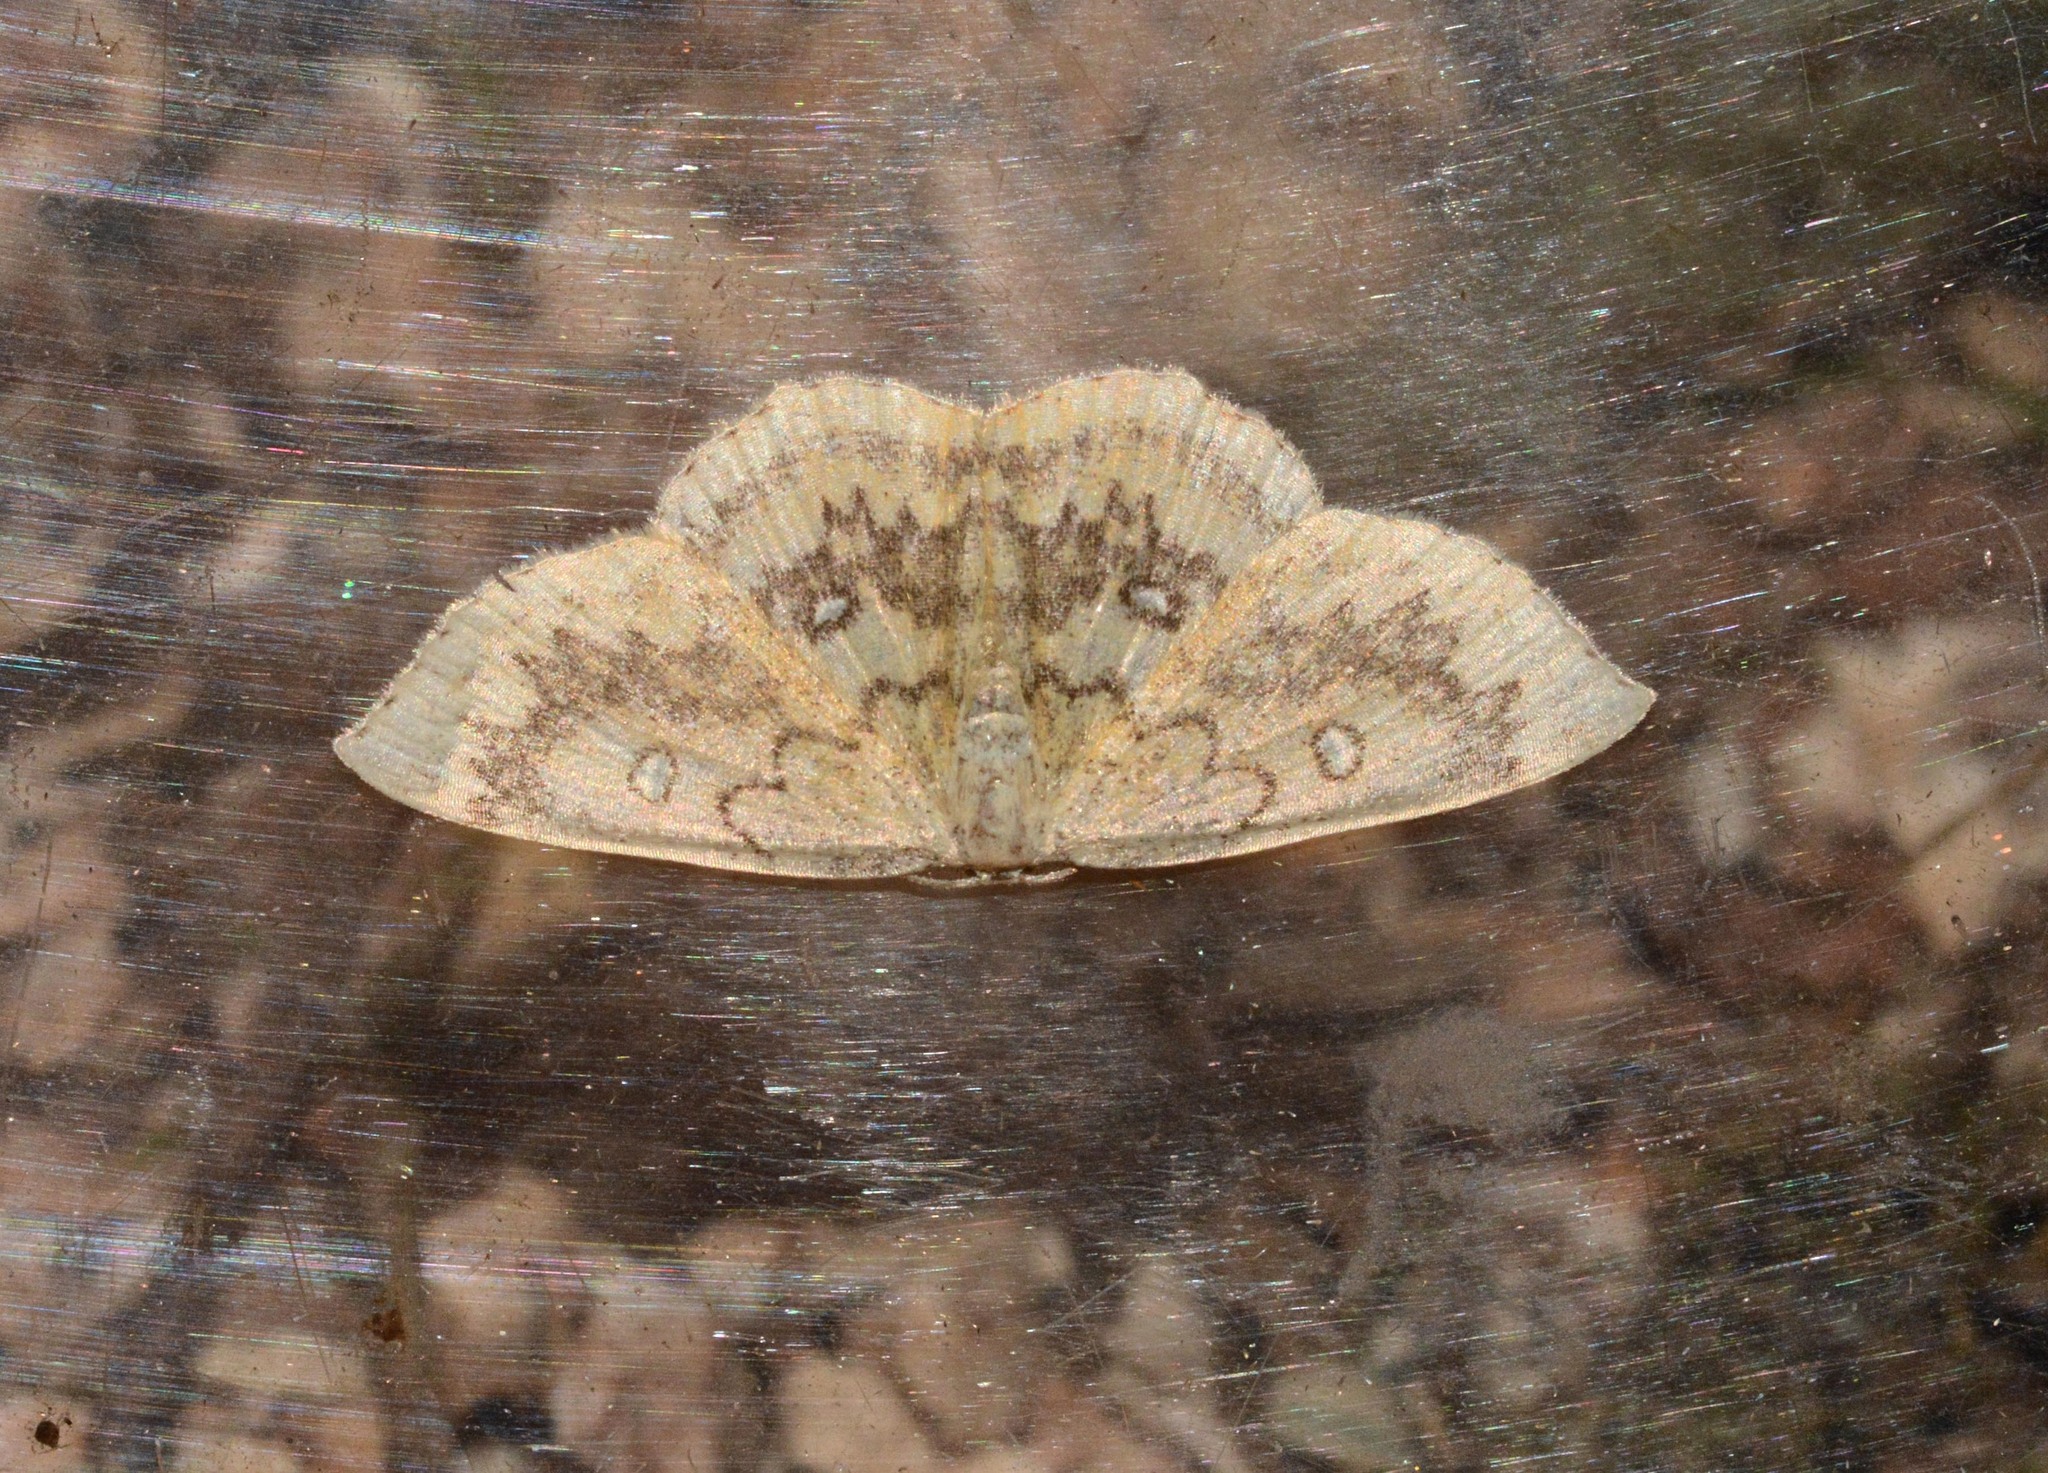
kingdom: Animalia
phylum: Arthropoda
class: Insecta
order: Lepidoptera
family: Geometridae
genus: Cyclophora
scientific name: Cyclophora annularia
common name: Mocha
